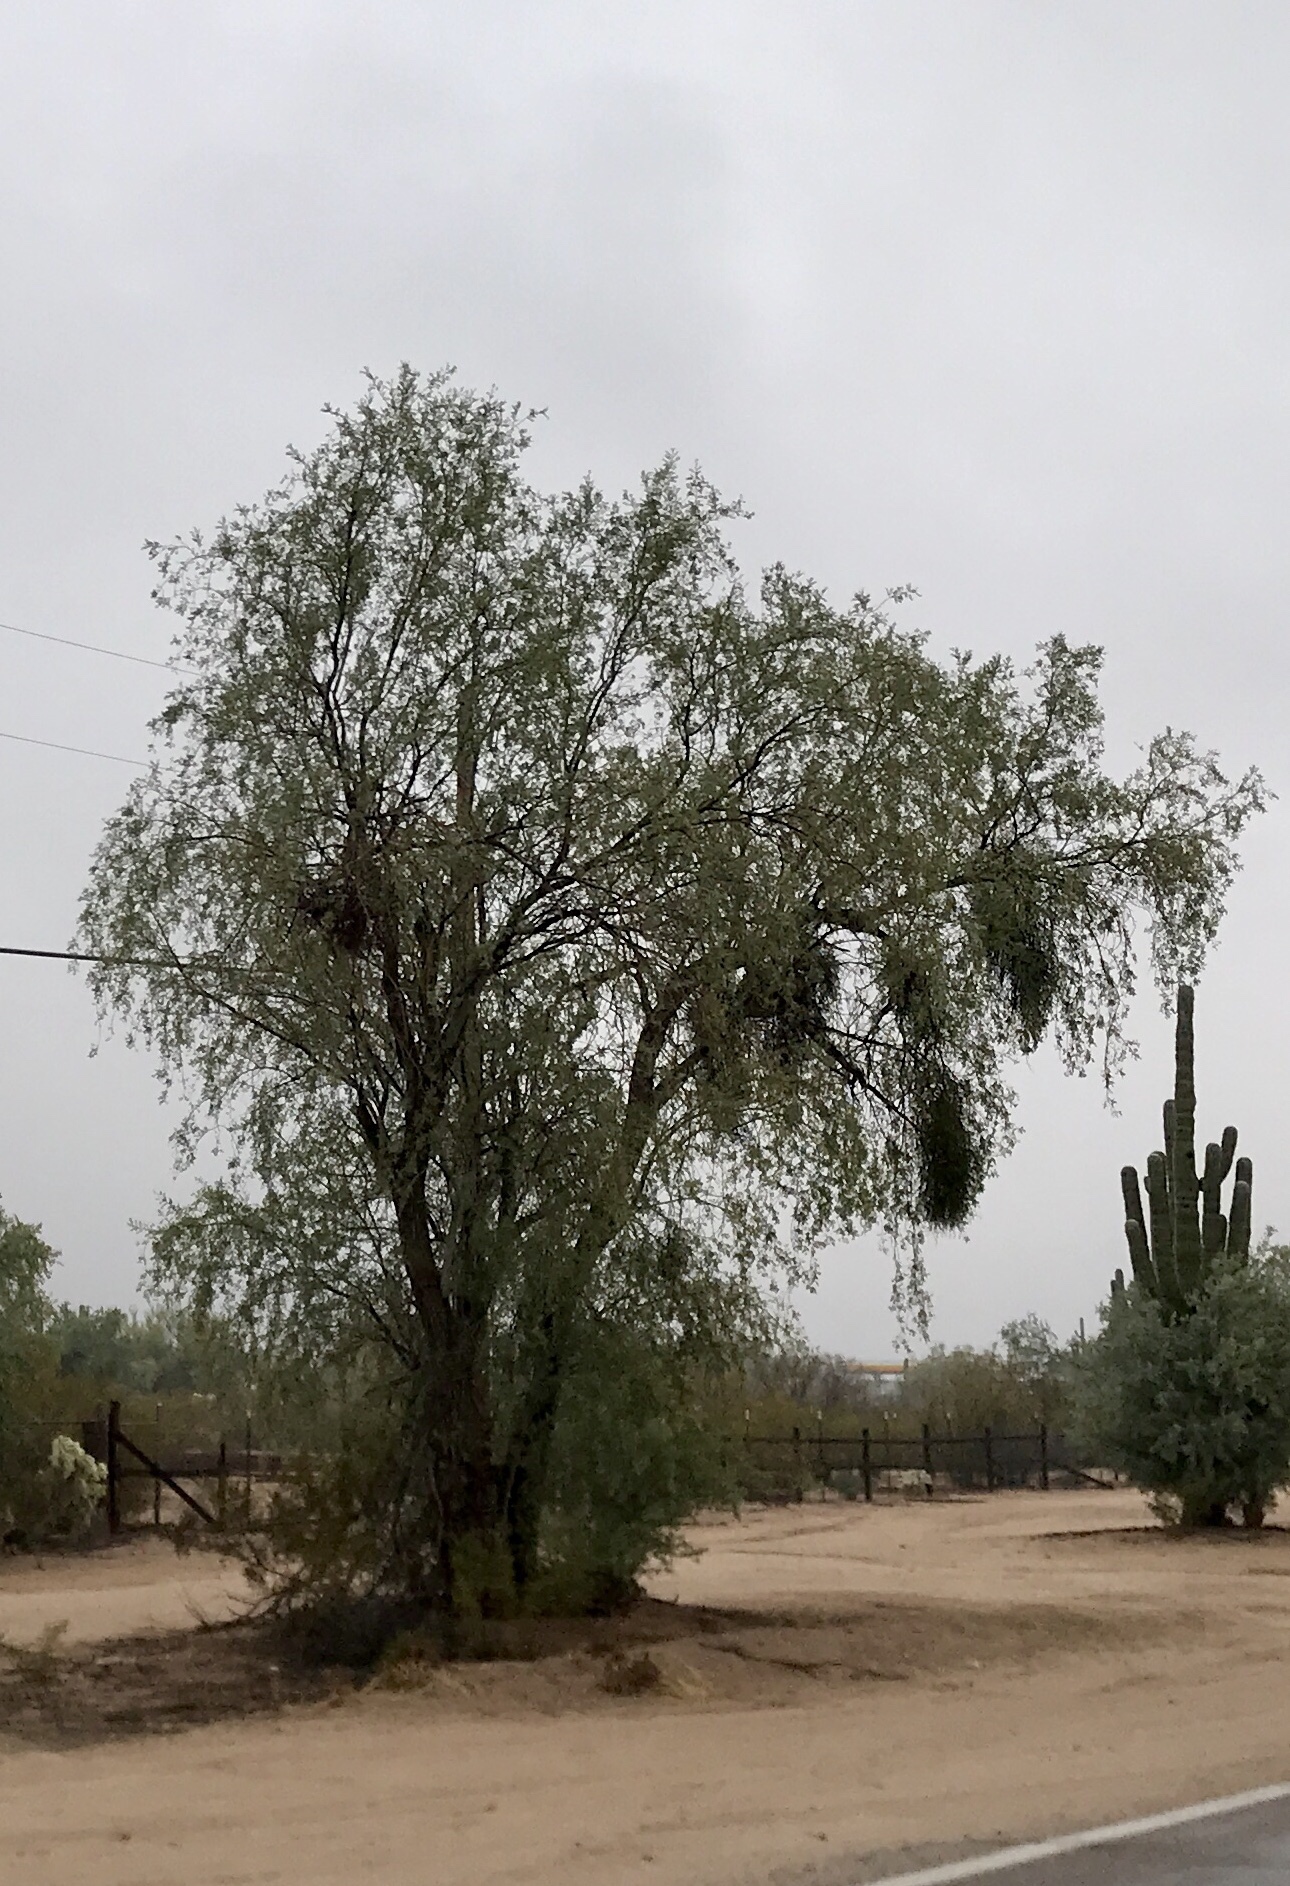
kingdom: Plantae
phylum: Tracheophyta
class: Magnoliopsida
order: Fabales
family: Fabaceae
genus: Olneya
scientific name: Olneya tesota
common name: Desert ironwood
